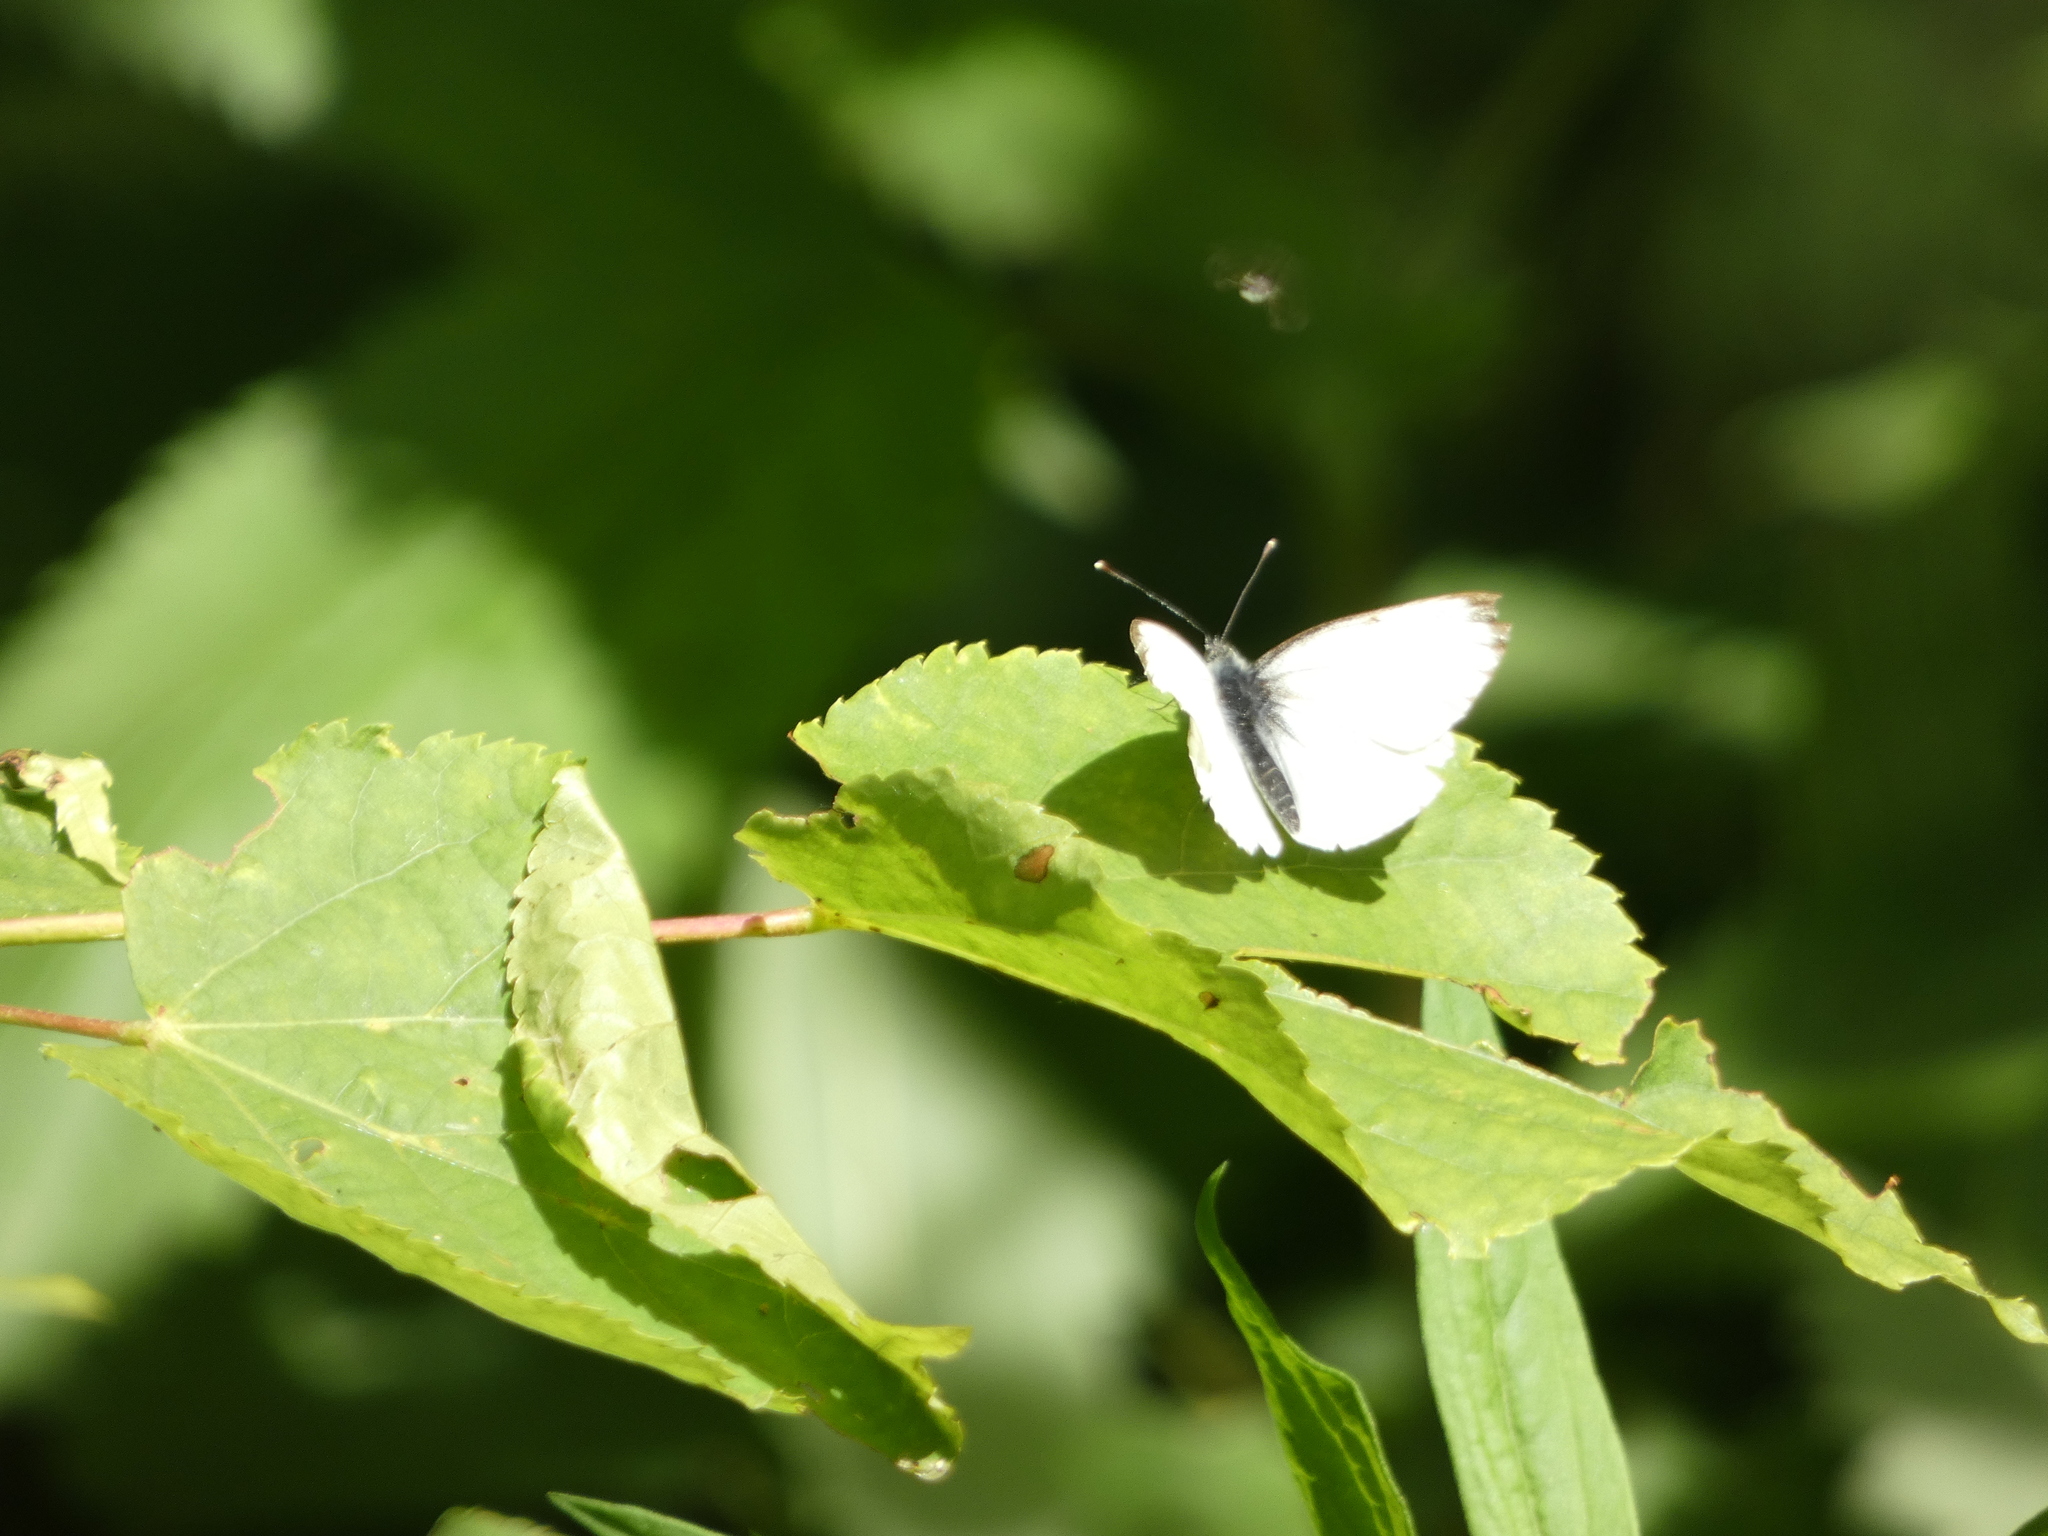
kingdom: Animalia
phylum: Arthropoda
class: Insecta
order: Lepidoptera
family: Pieridae
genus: Pieris
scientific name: Pieris napi
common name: Green-veined white
